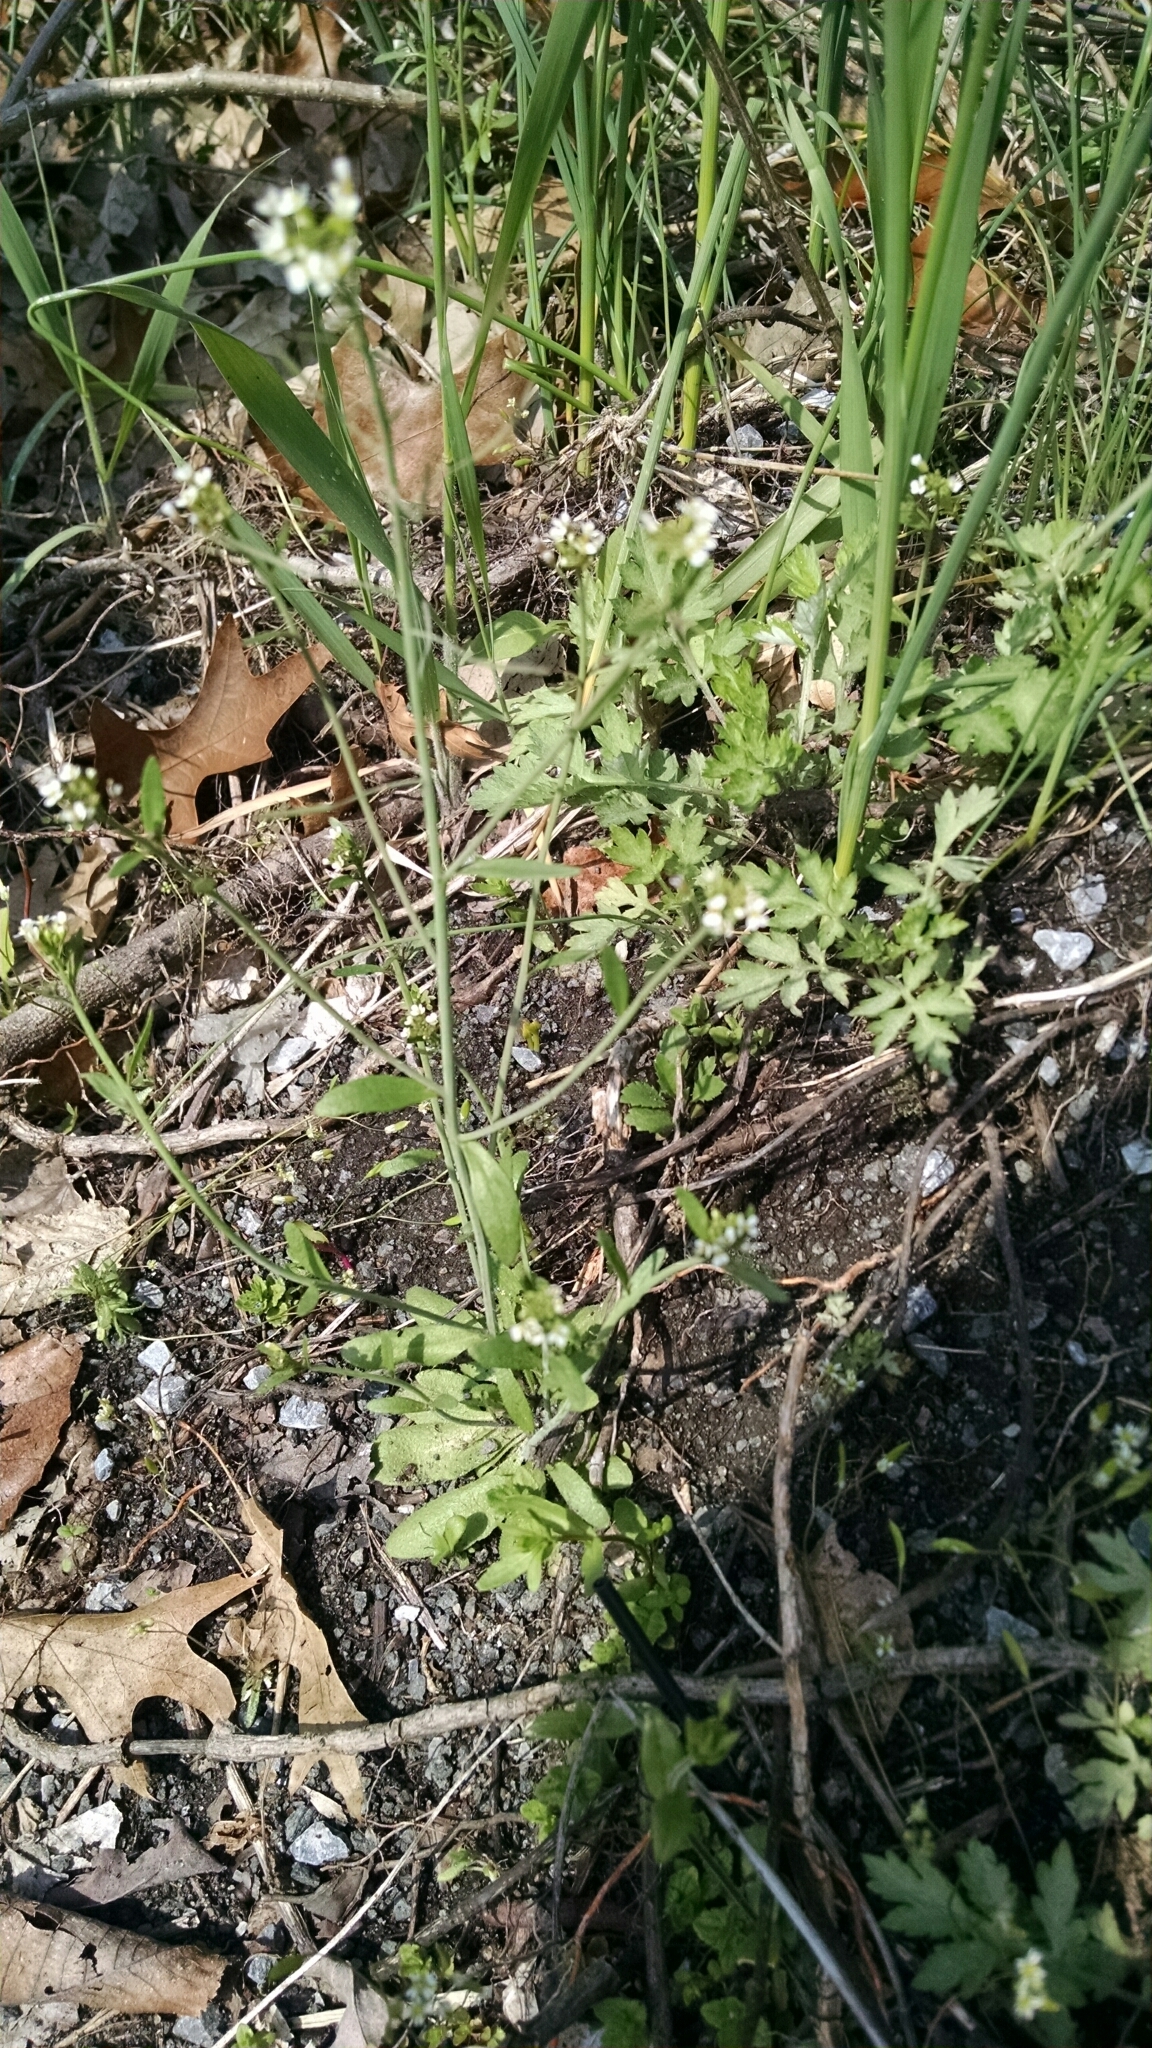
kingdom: Plantae
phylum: Tracheophyta
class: Magnoliopsida
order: Brassicales
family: Brassicaceae
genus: Arabidopsis
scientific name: Arabidopsis thaliana
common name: Thale cress
